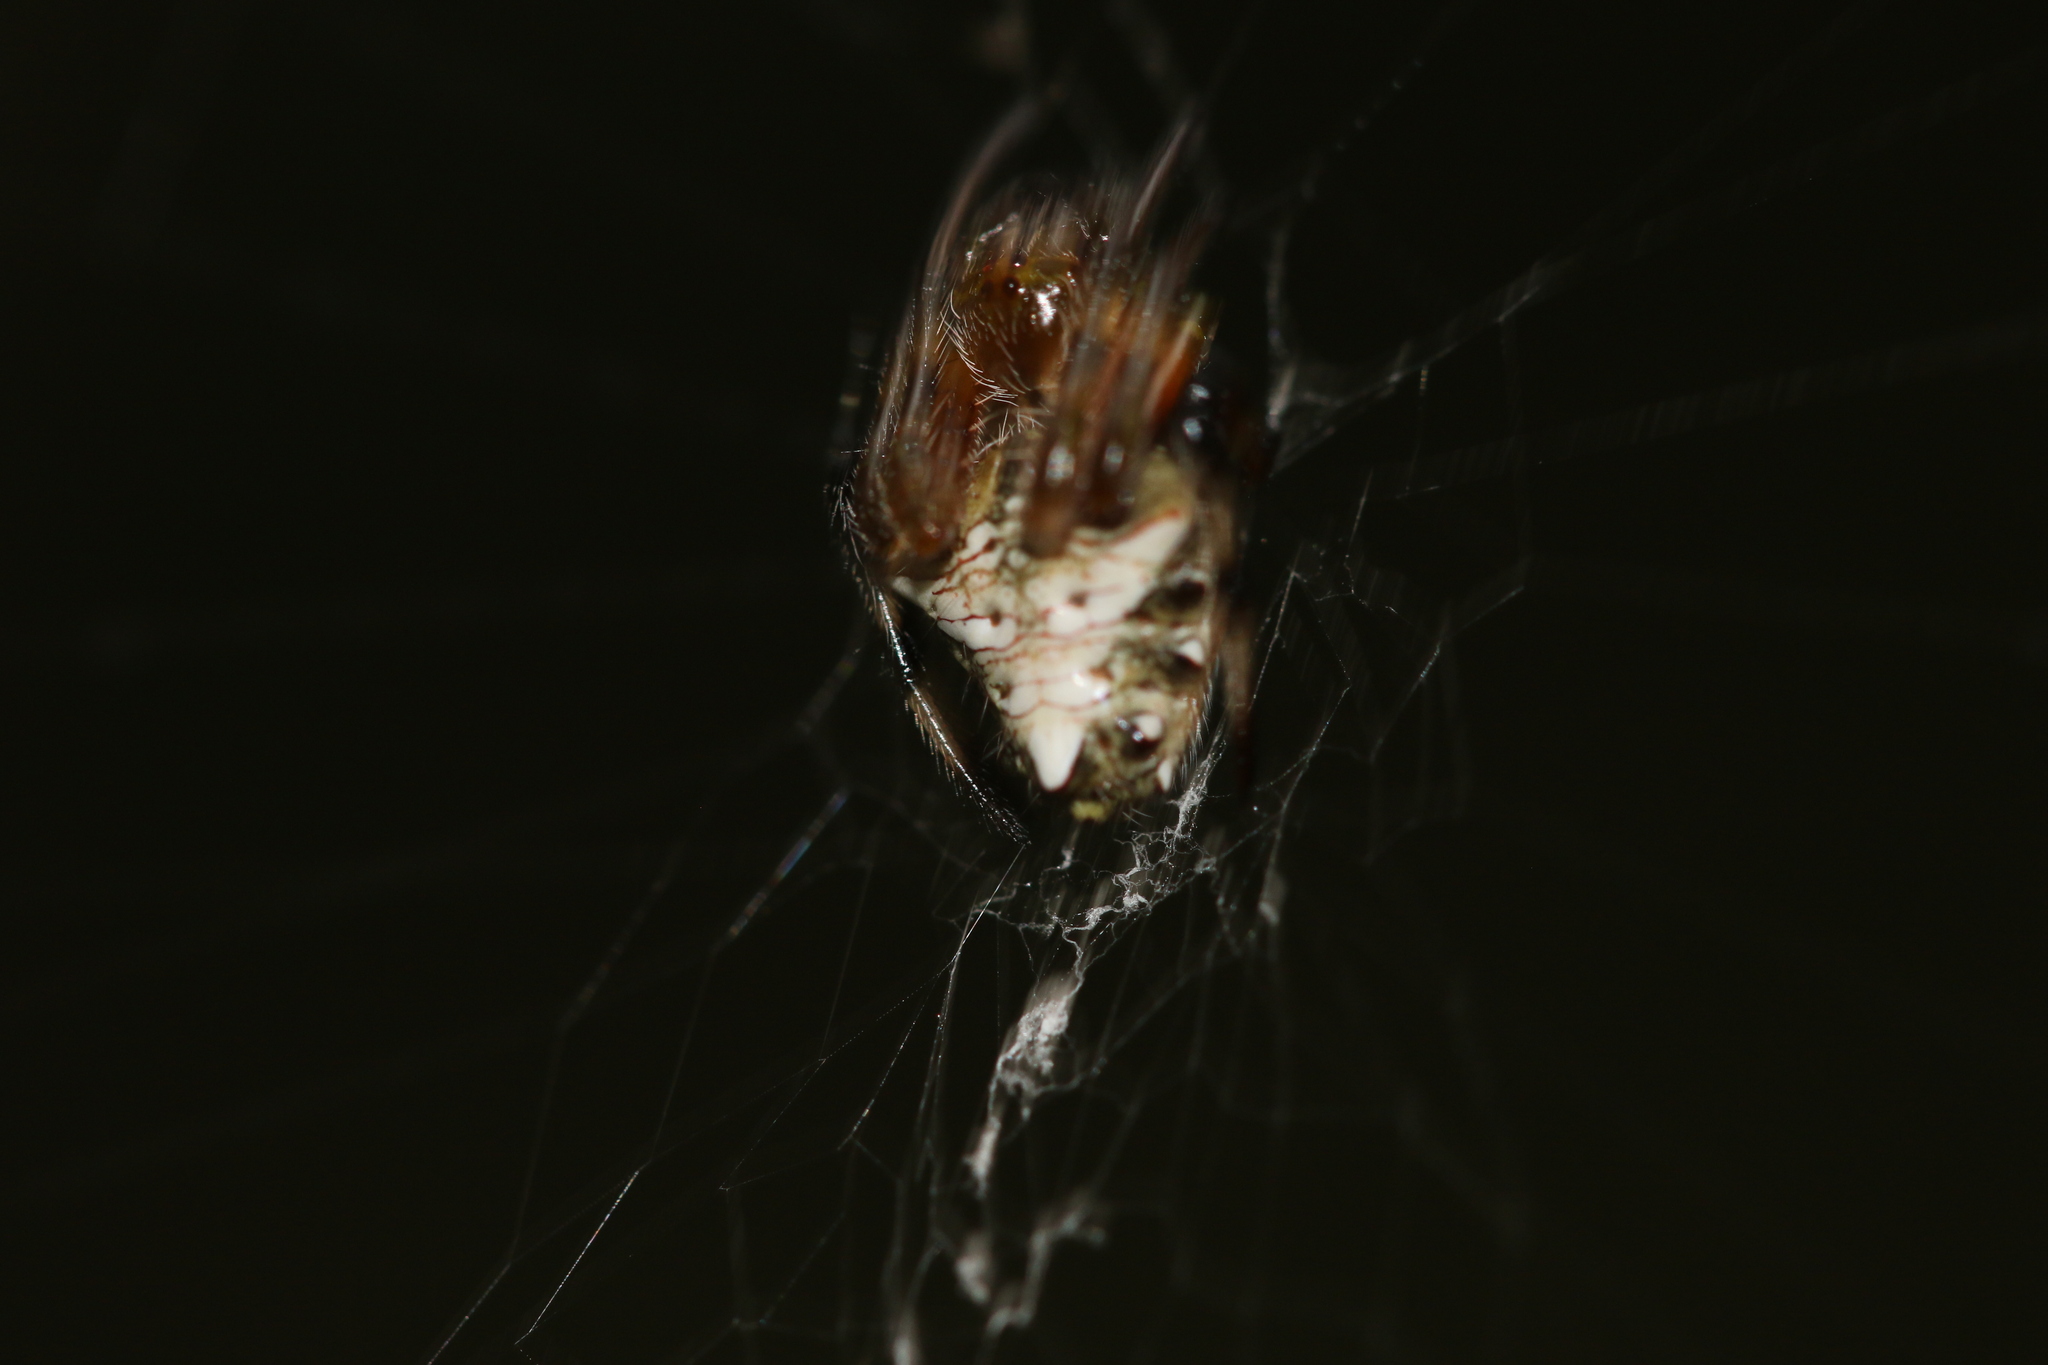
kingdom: Animalia
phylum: Arthropoda
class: Arachnida
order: Araneae
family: Araneidae
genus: Verrucosa
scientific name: Verrucosa meridionalis
